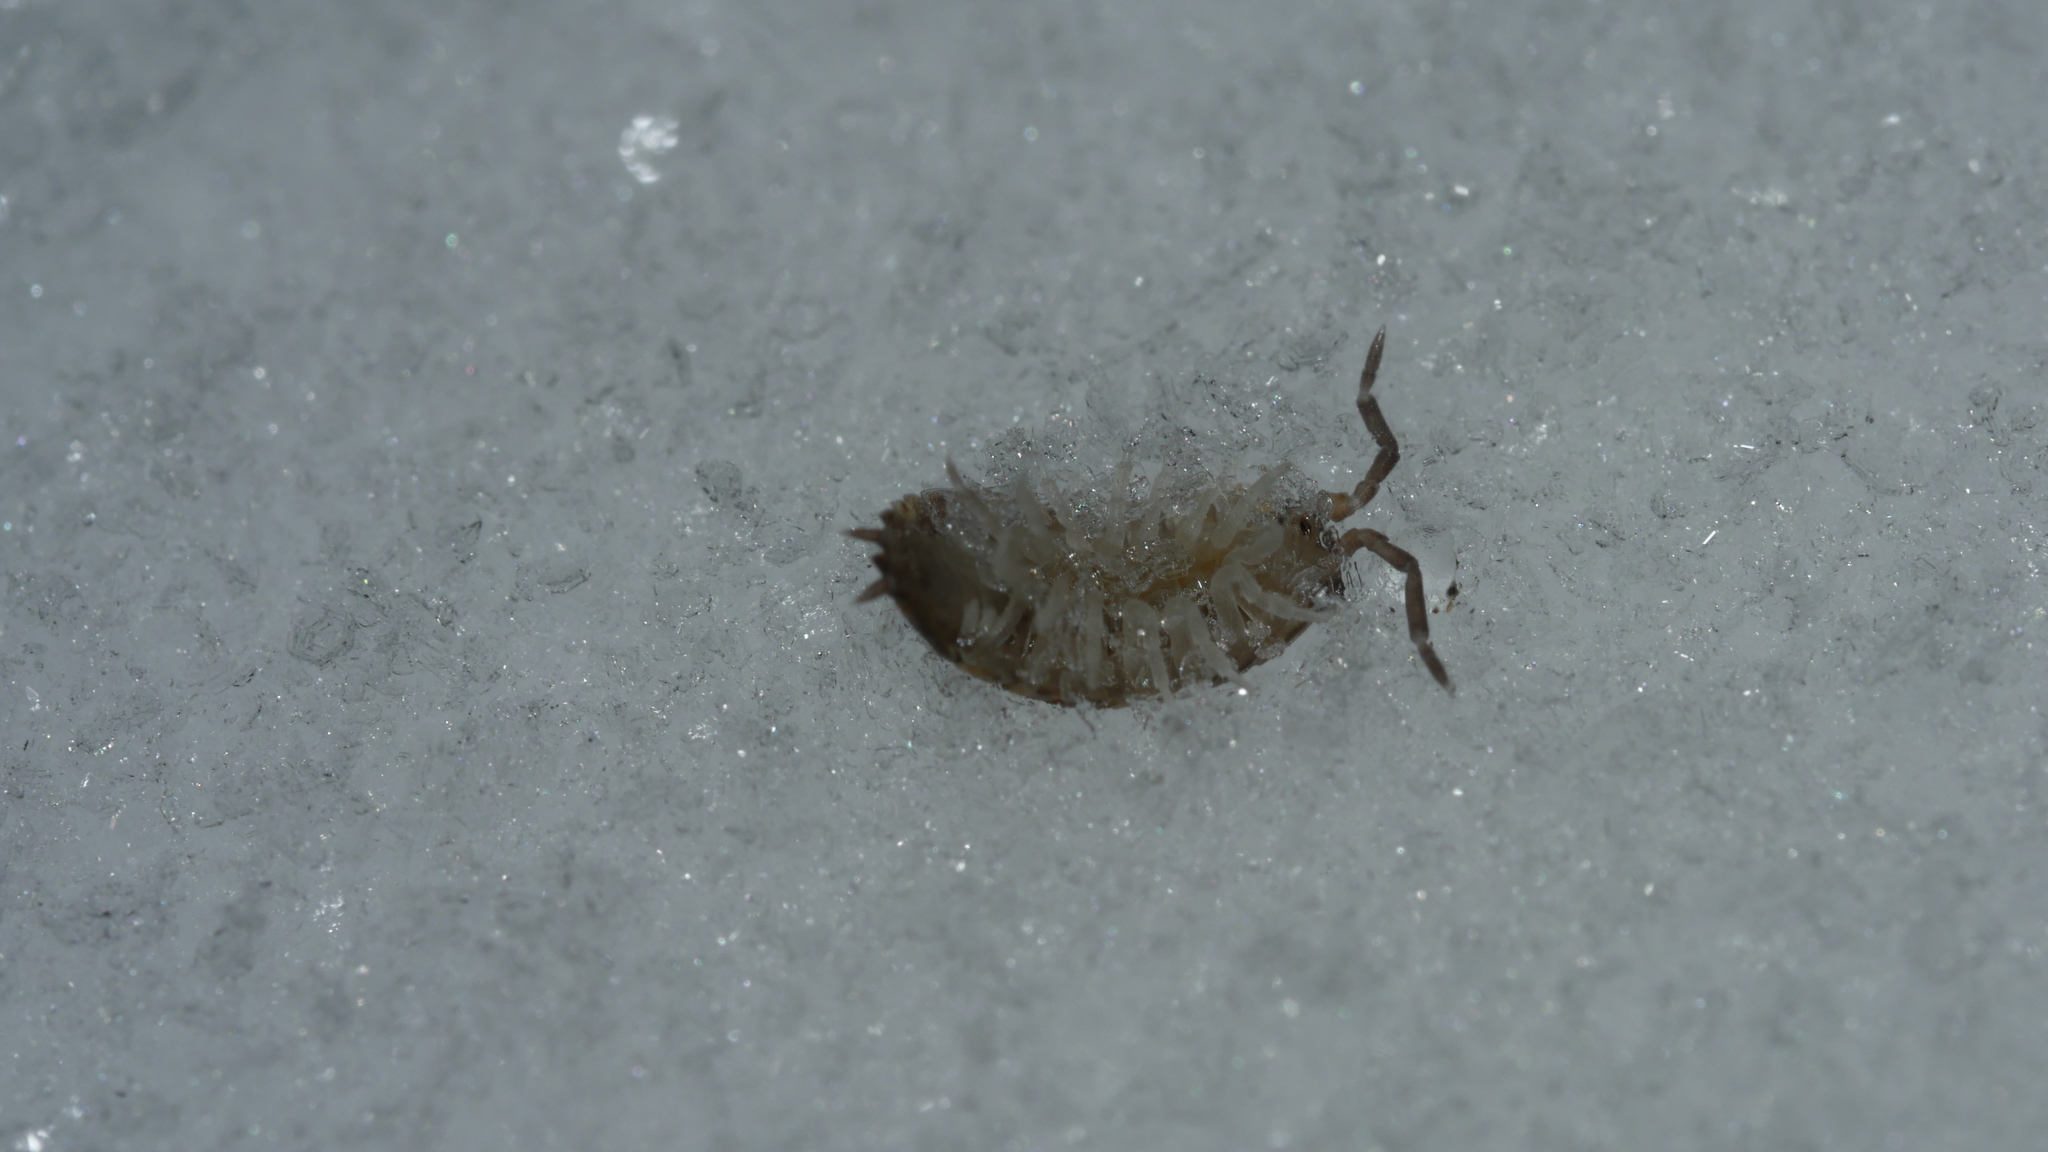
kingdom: Animalia
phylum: Arthropoda
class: Malacostraca
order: Isopoda
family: Porcellionidae
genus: Porcellio
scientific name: Porcellio scaber
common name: Common rough woodlouse
